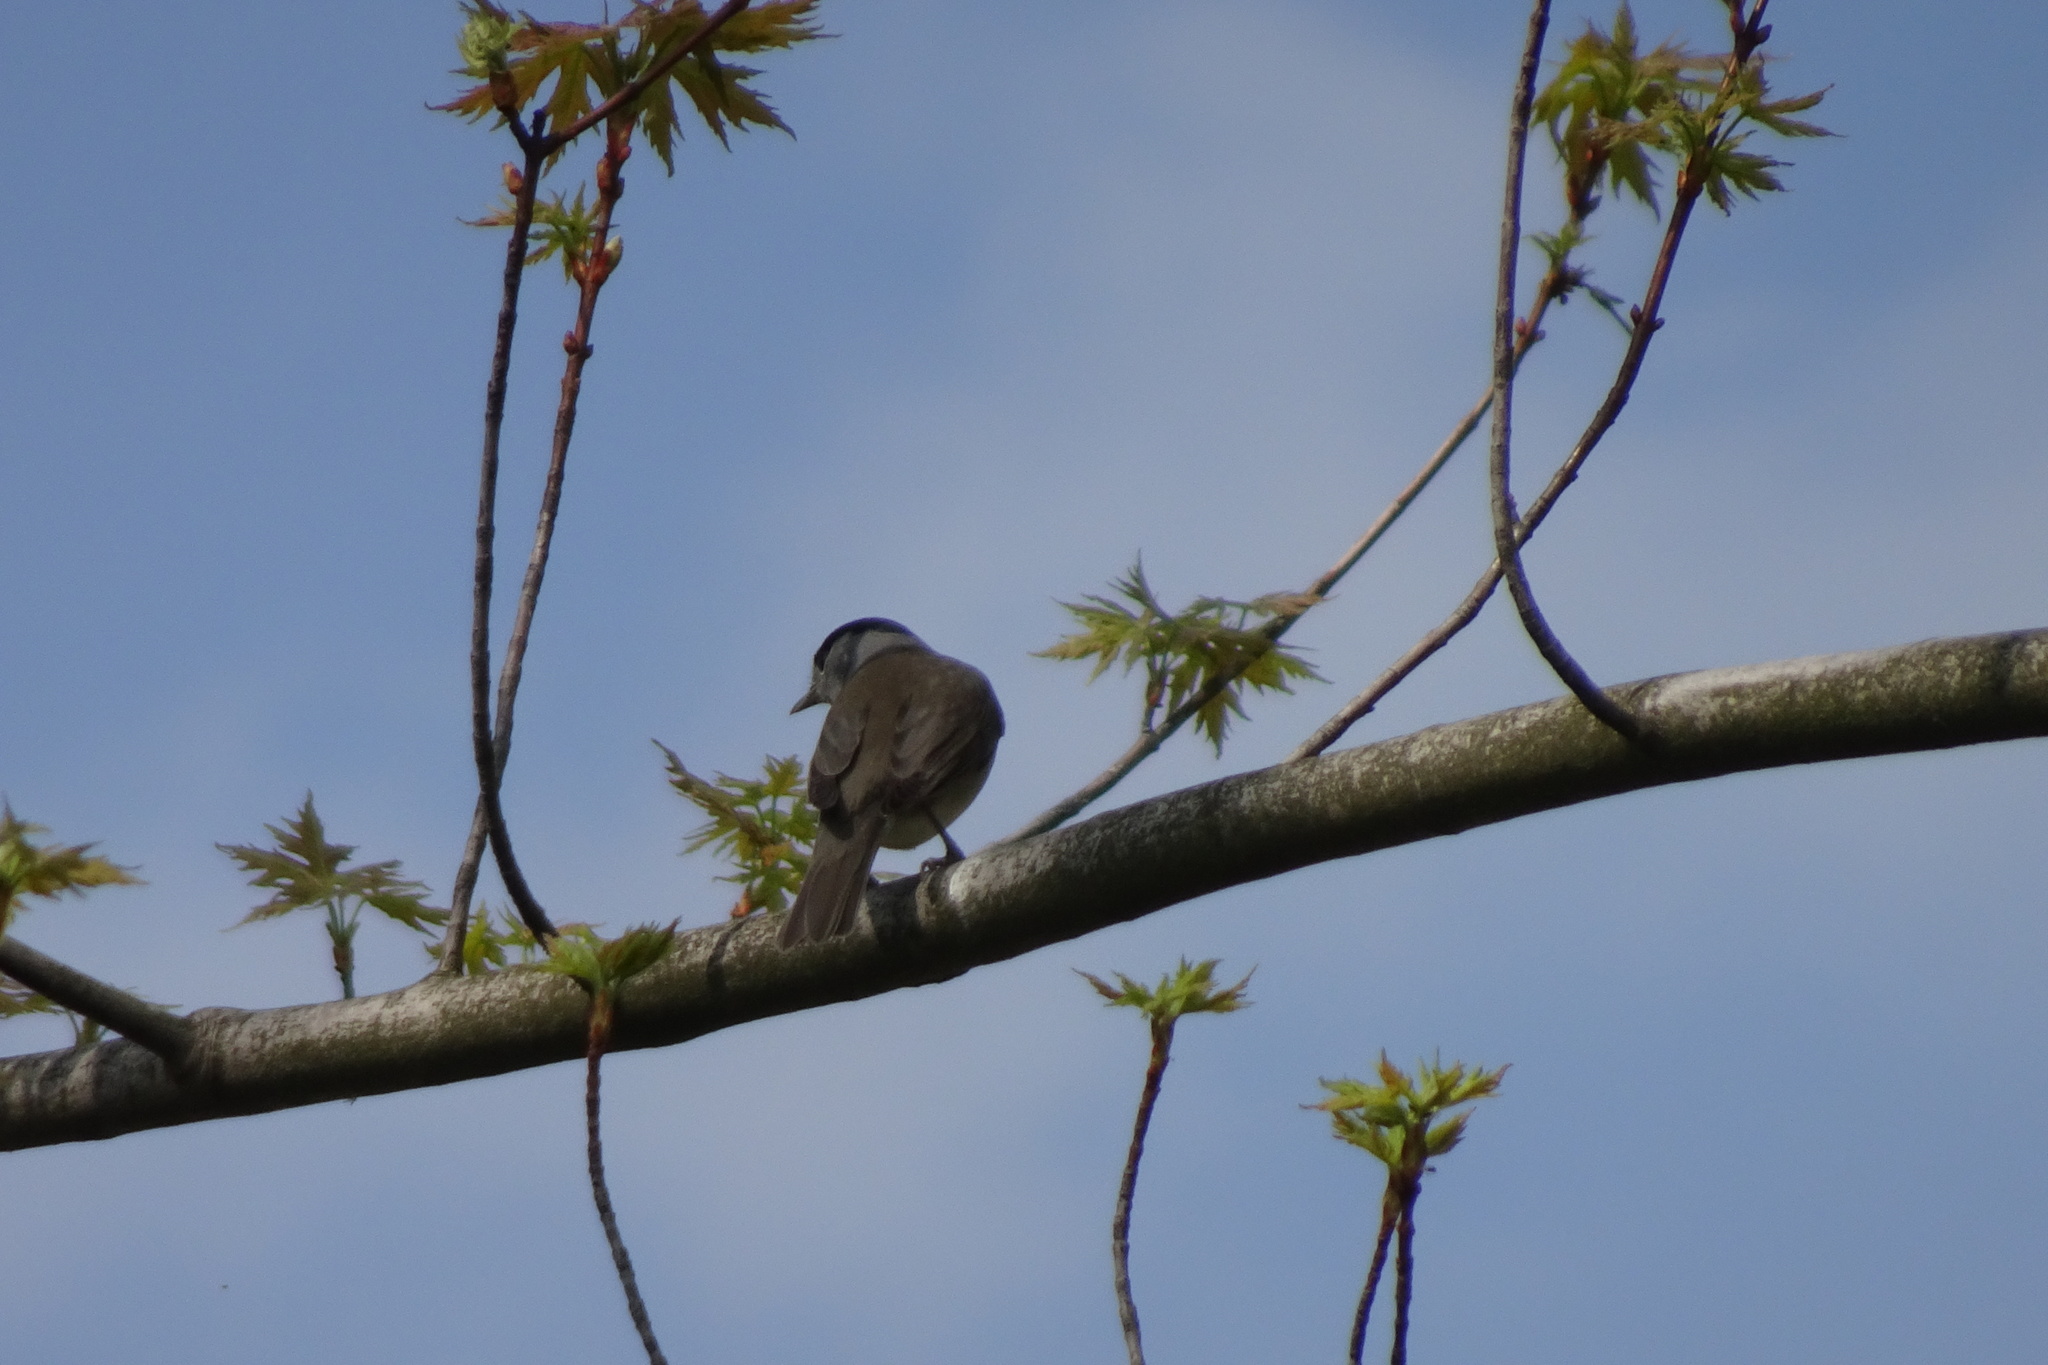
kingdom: Animalia
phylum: Chordata
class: Aves
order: Passeriformes
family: Sylviidae
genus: Sylvia
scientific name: Sylvia atricapilla
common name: Eurasian blackcap
